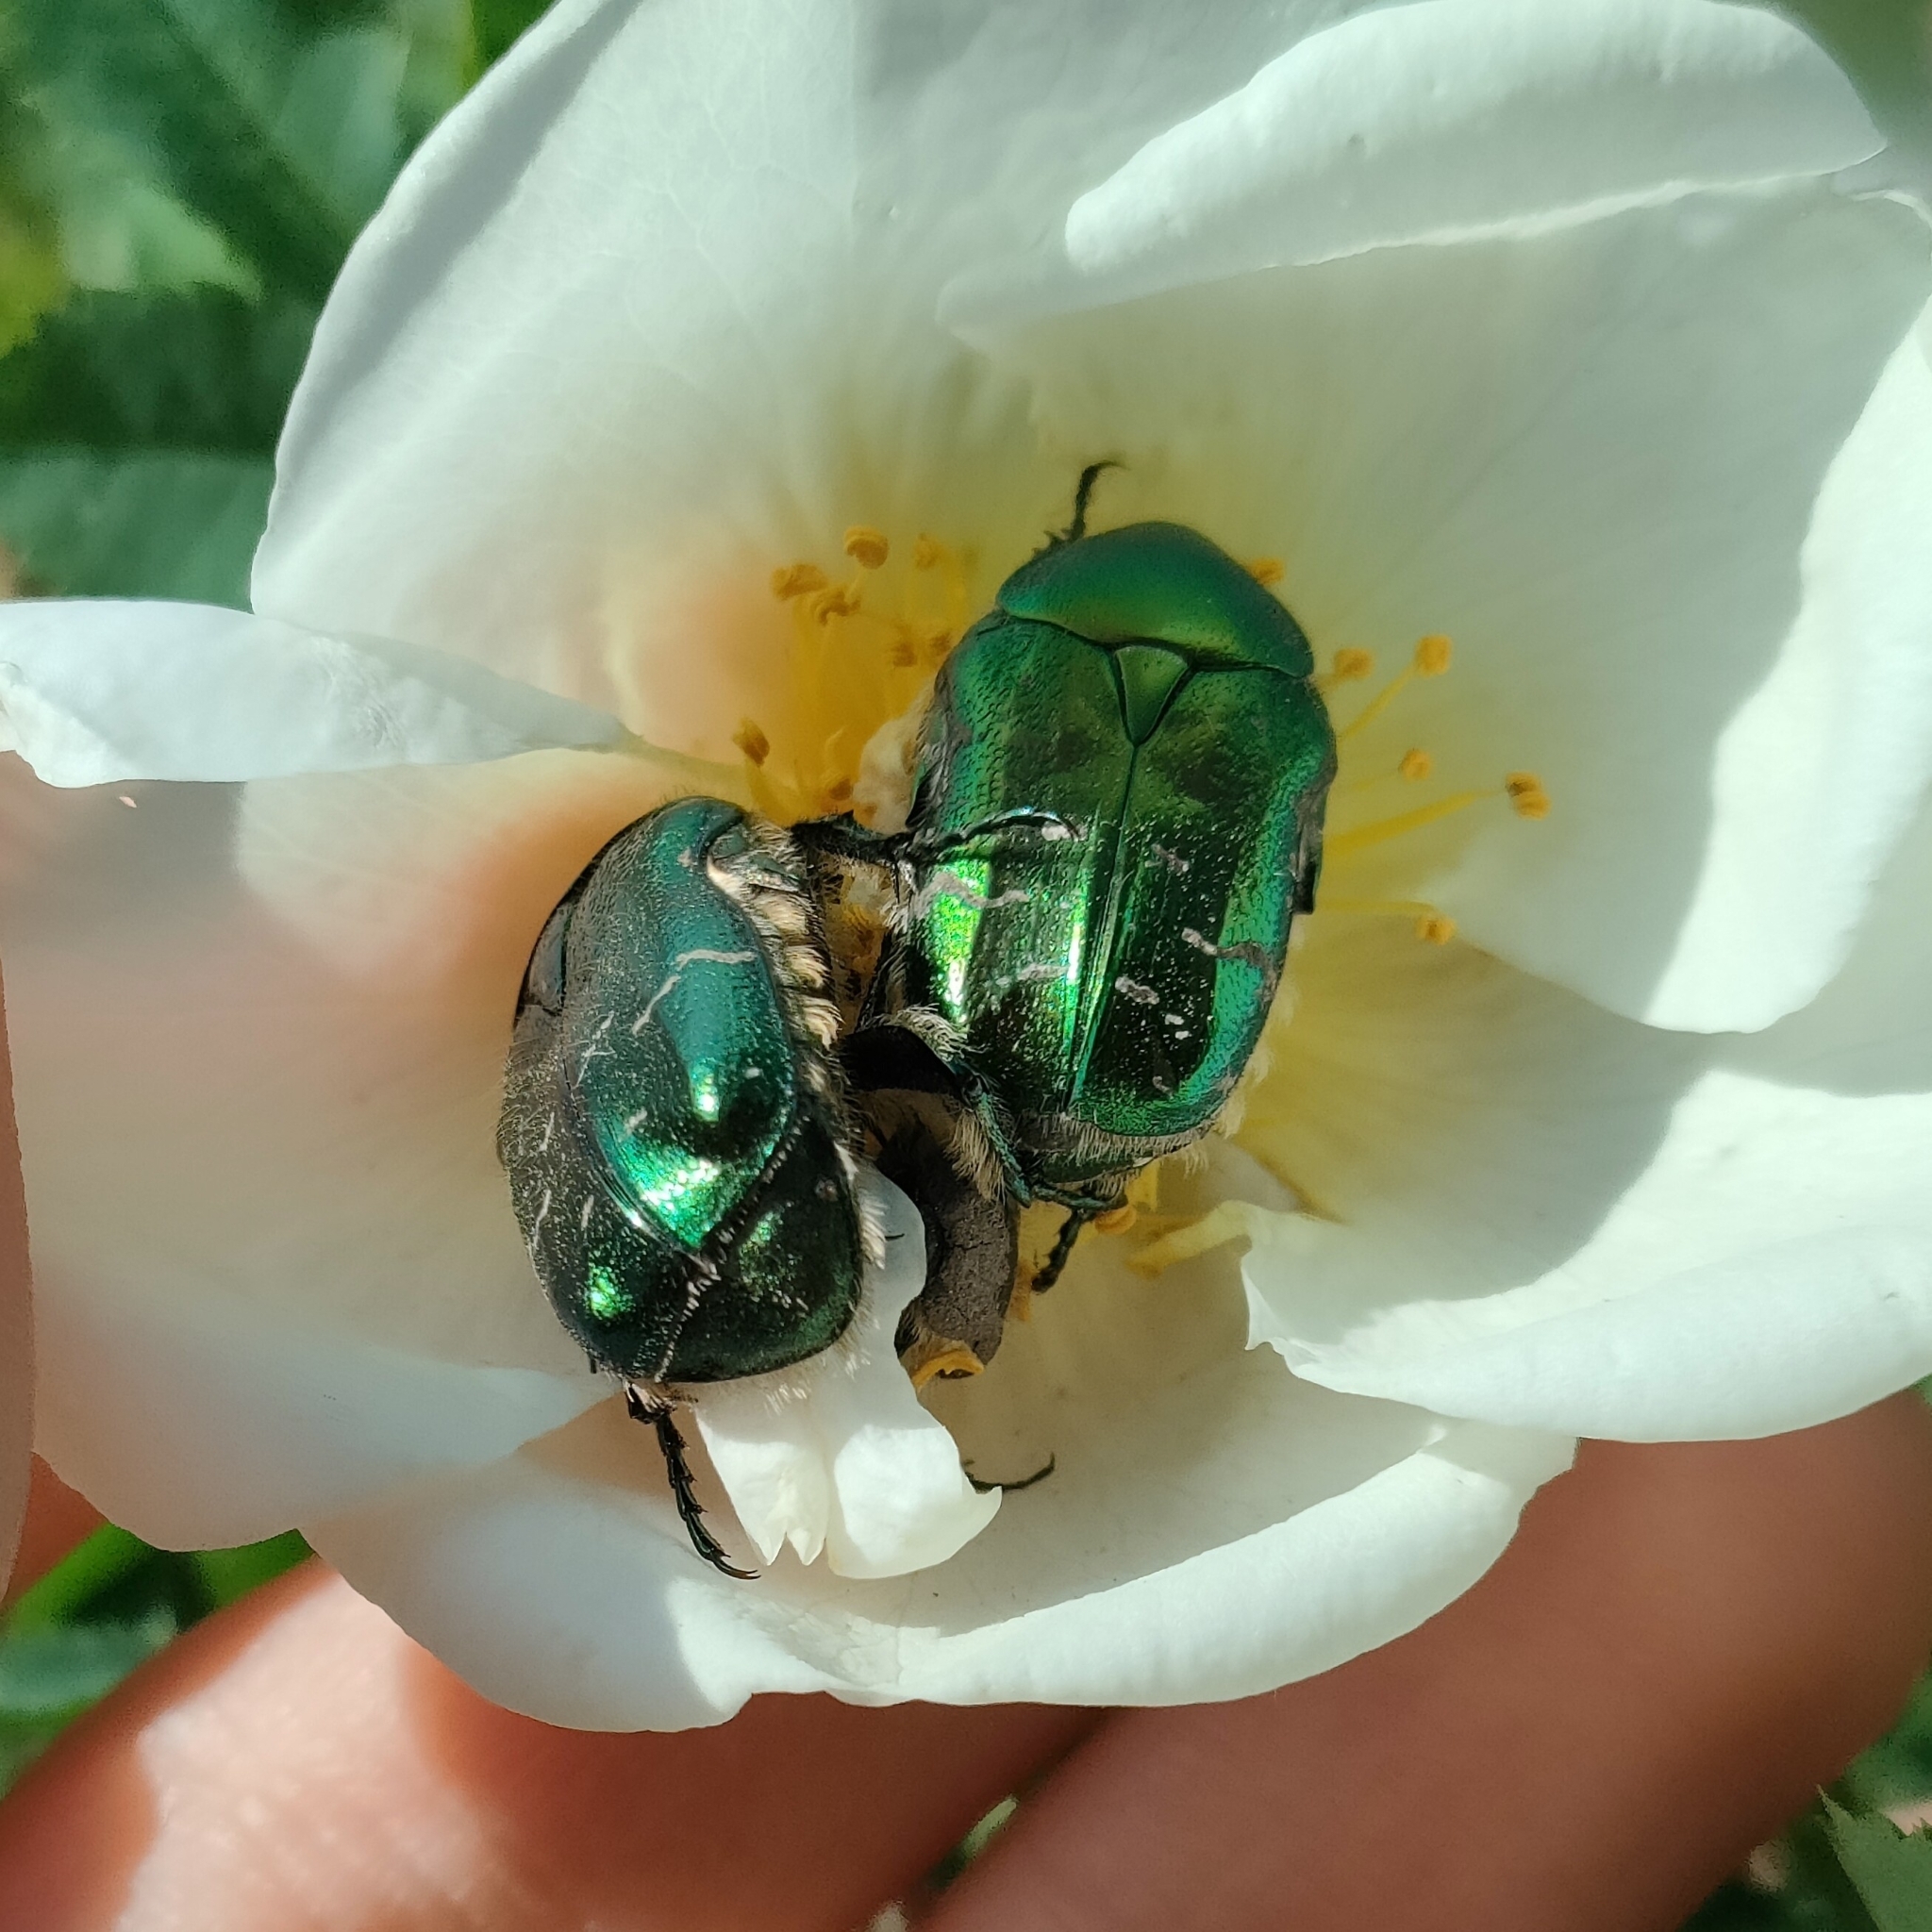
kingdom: Animalia
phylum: Arthropoda
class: Insecta
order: Coleoptera
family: Scarabaeidae
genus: Cetonia
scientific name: Cetonia aurata
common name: Rose chafer
